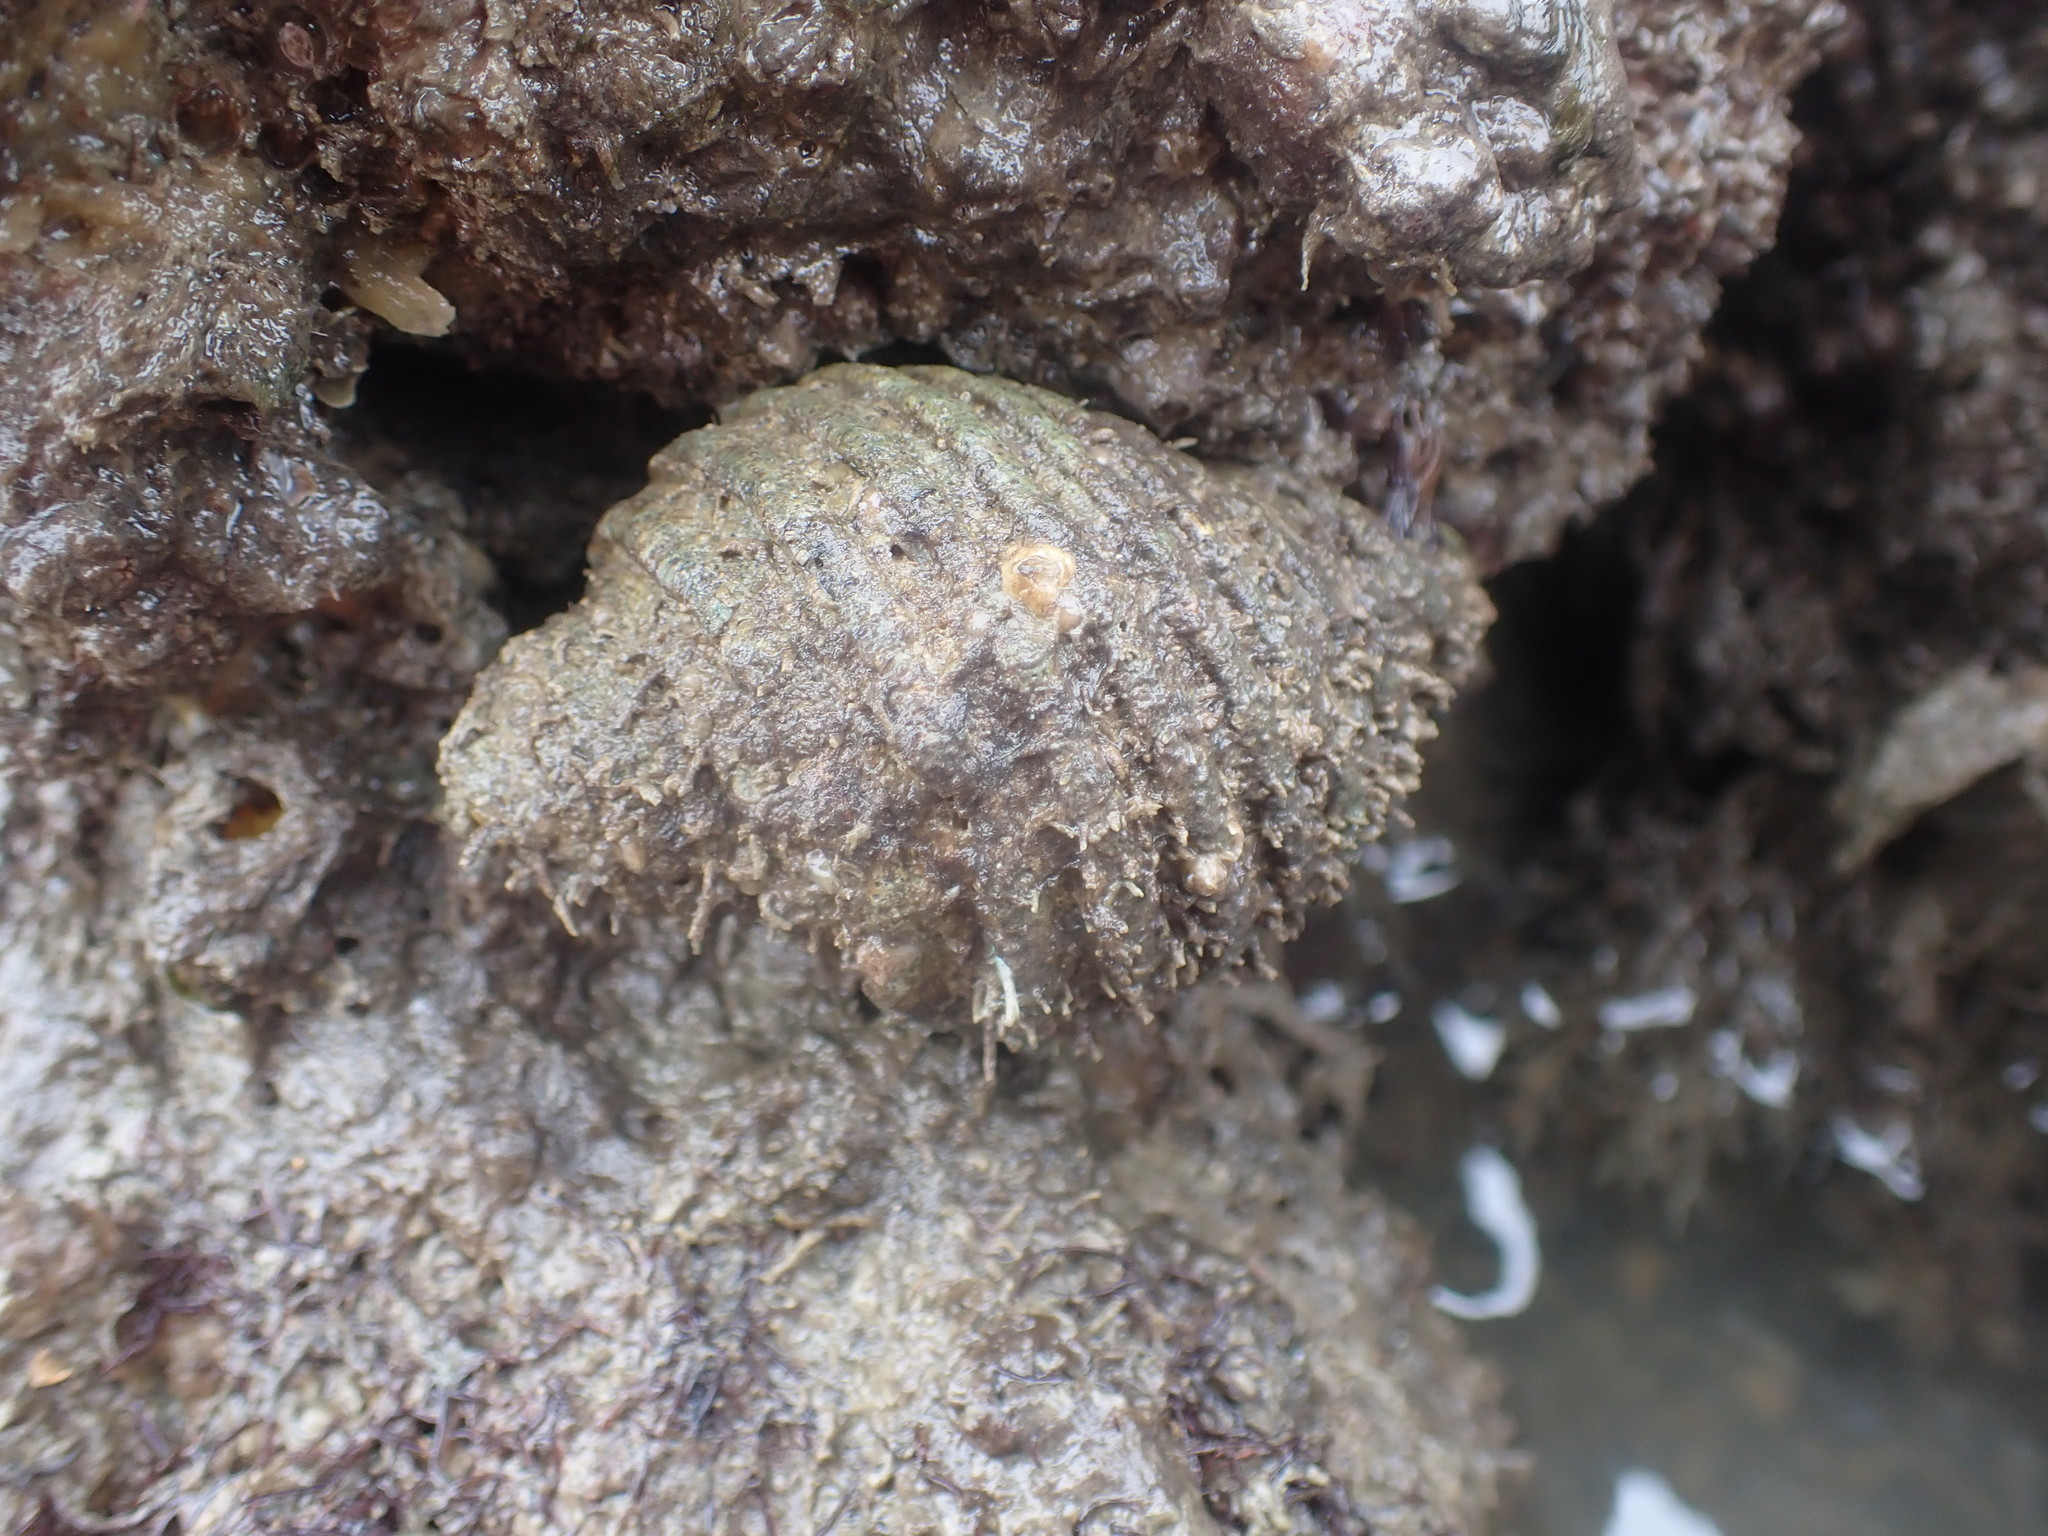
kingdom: Animalia
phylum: Mollusca
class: Gastropoda
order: Neogastropoda
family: Muricidae
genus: Dicathais
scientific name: Dicathais orbita
